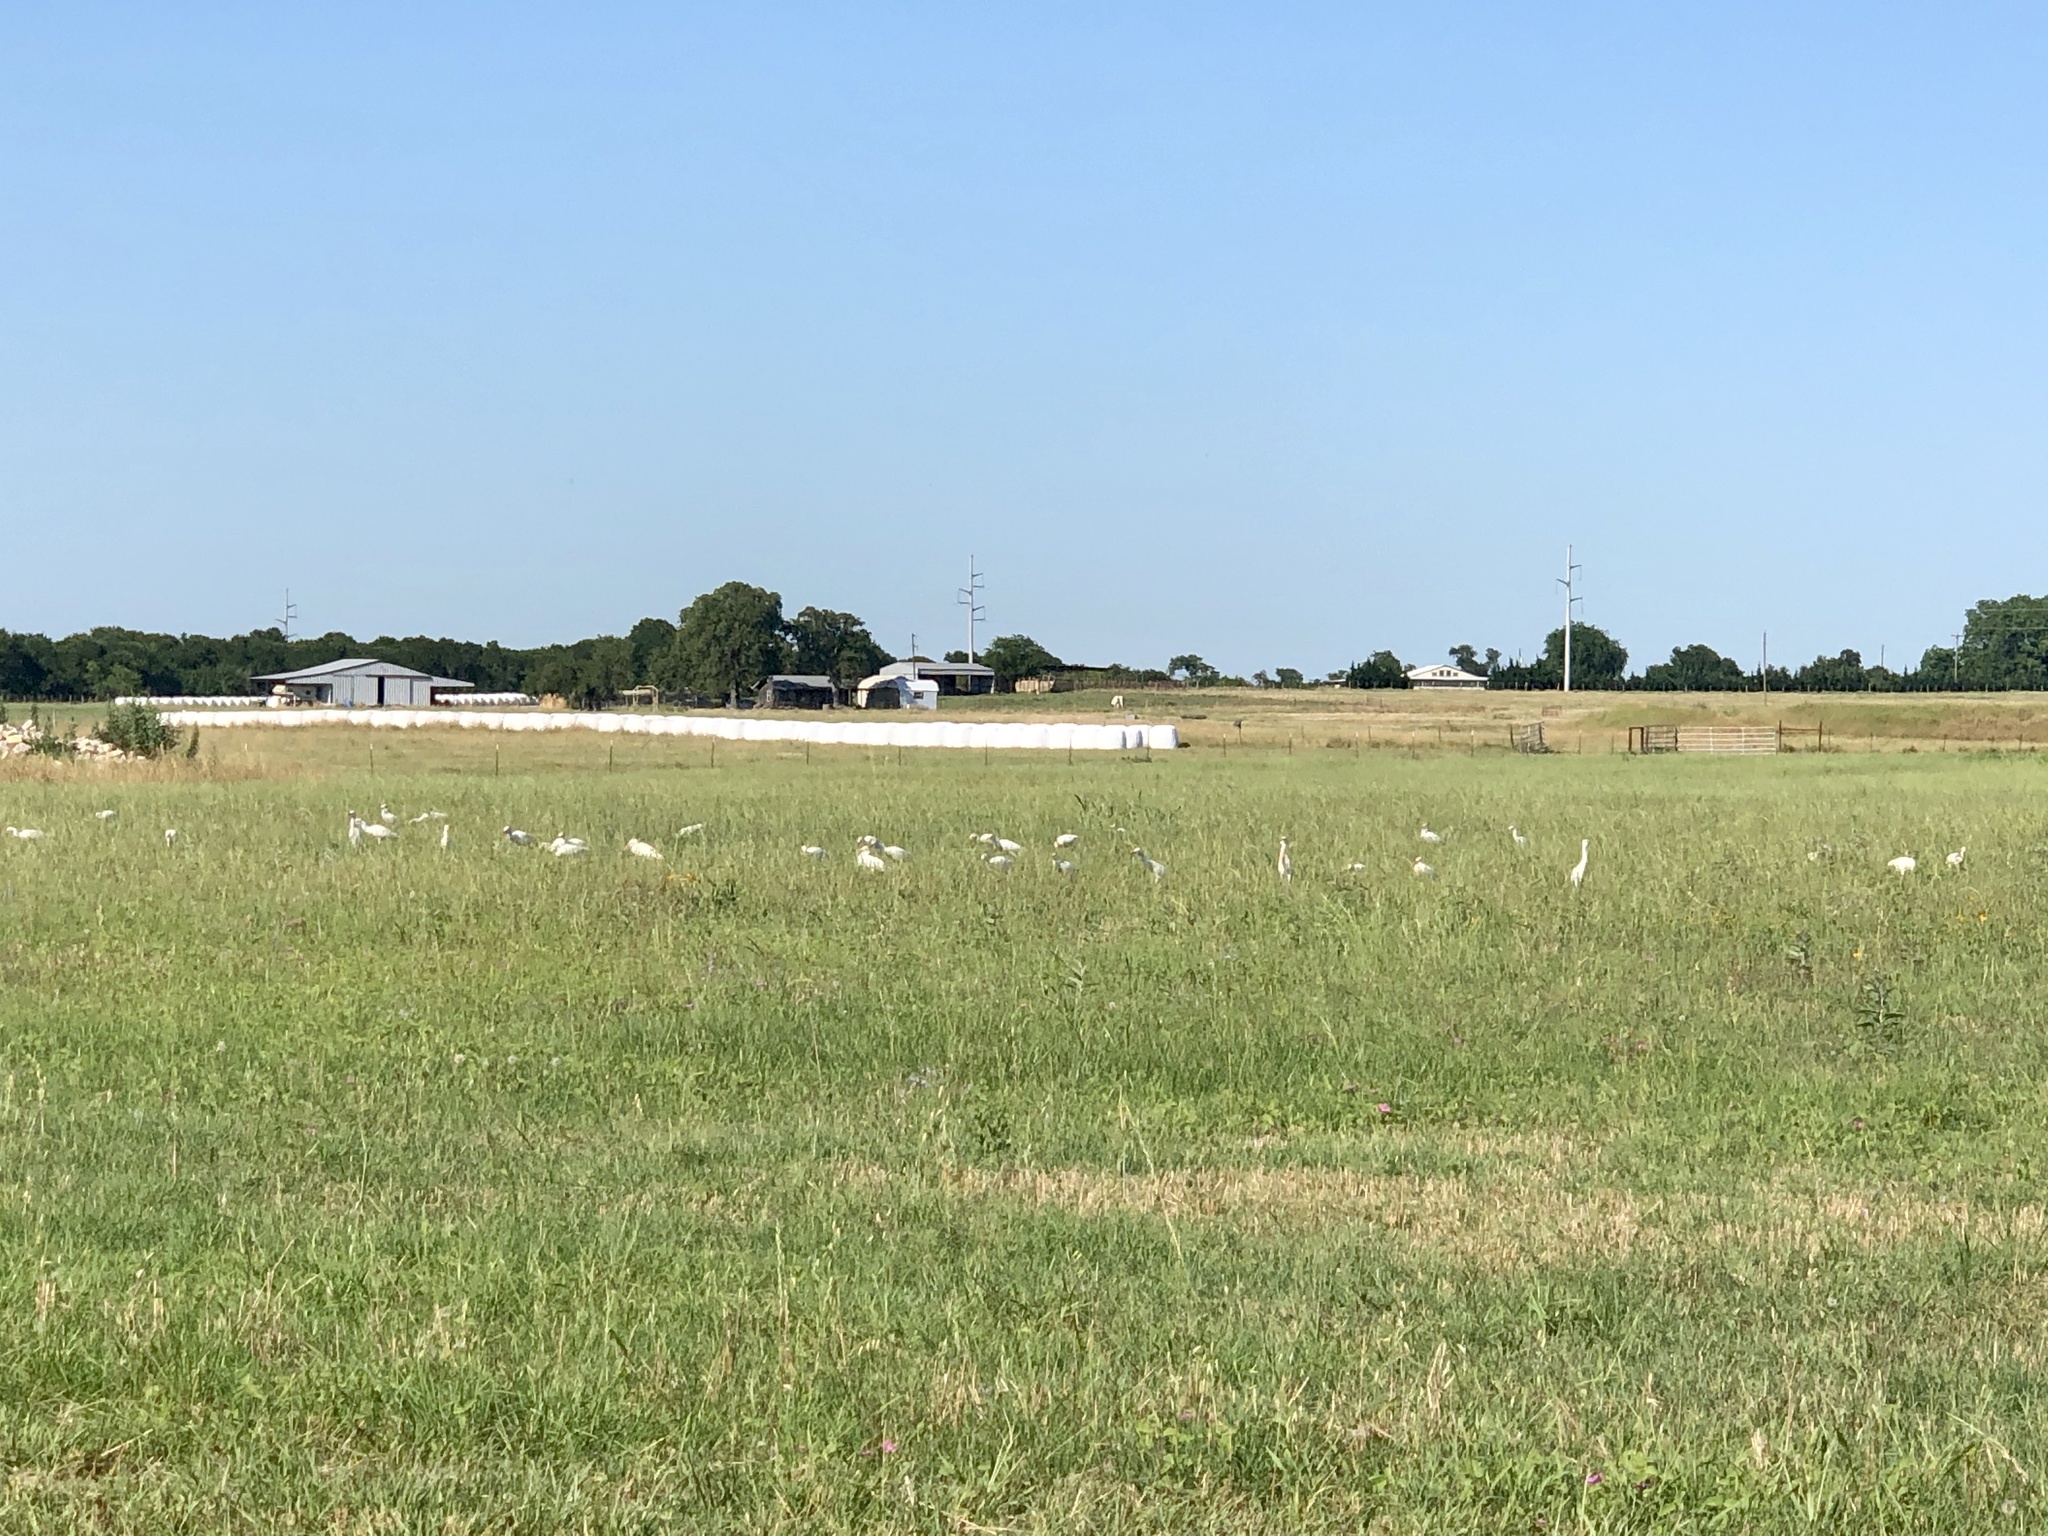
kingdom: Animalia
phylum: Chordata
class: Aves
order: Pelecaniformes
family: Ardeidae
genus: Bubulcus
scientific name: Bubulcus ibis
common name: Cattle egret
